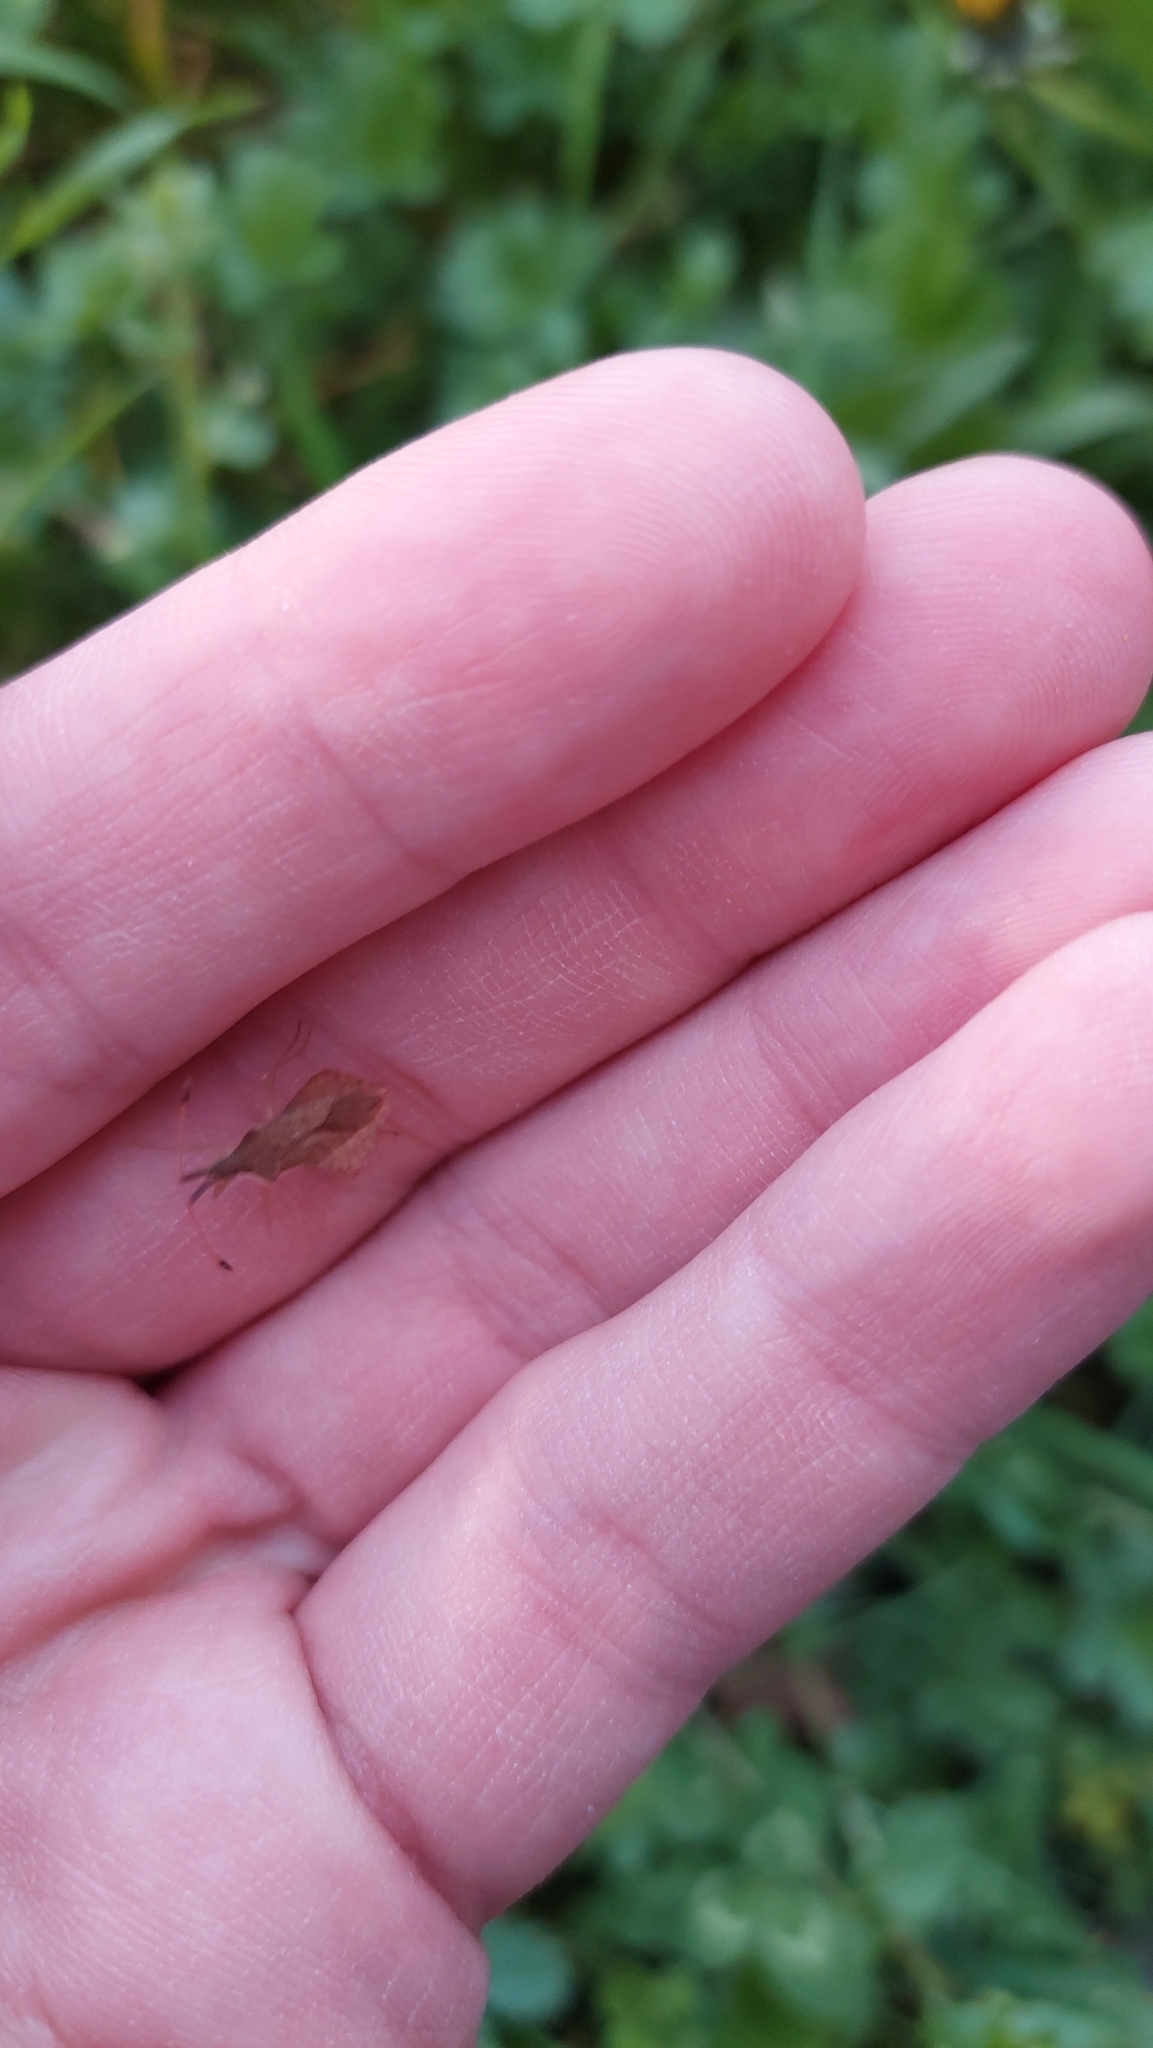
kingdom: Animalia
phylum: Arthropoda
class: Insecta
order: Hemiptera
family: Coreidae
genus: Syromastus
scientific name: Syromastus rhombeus
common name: Rhombic leatherbug
